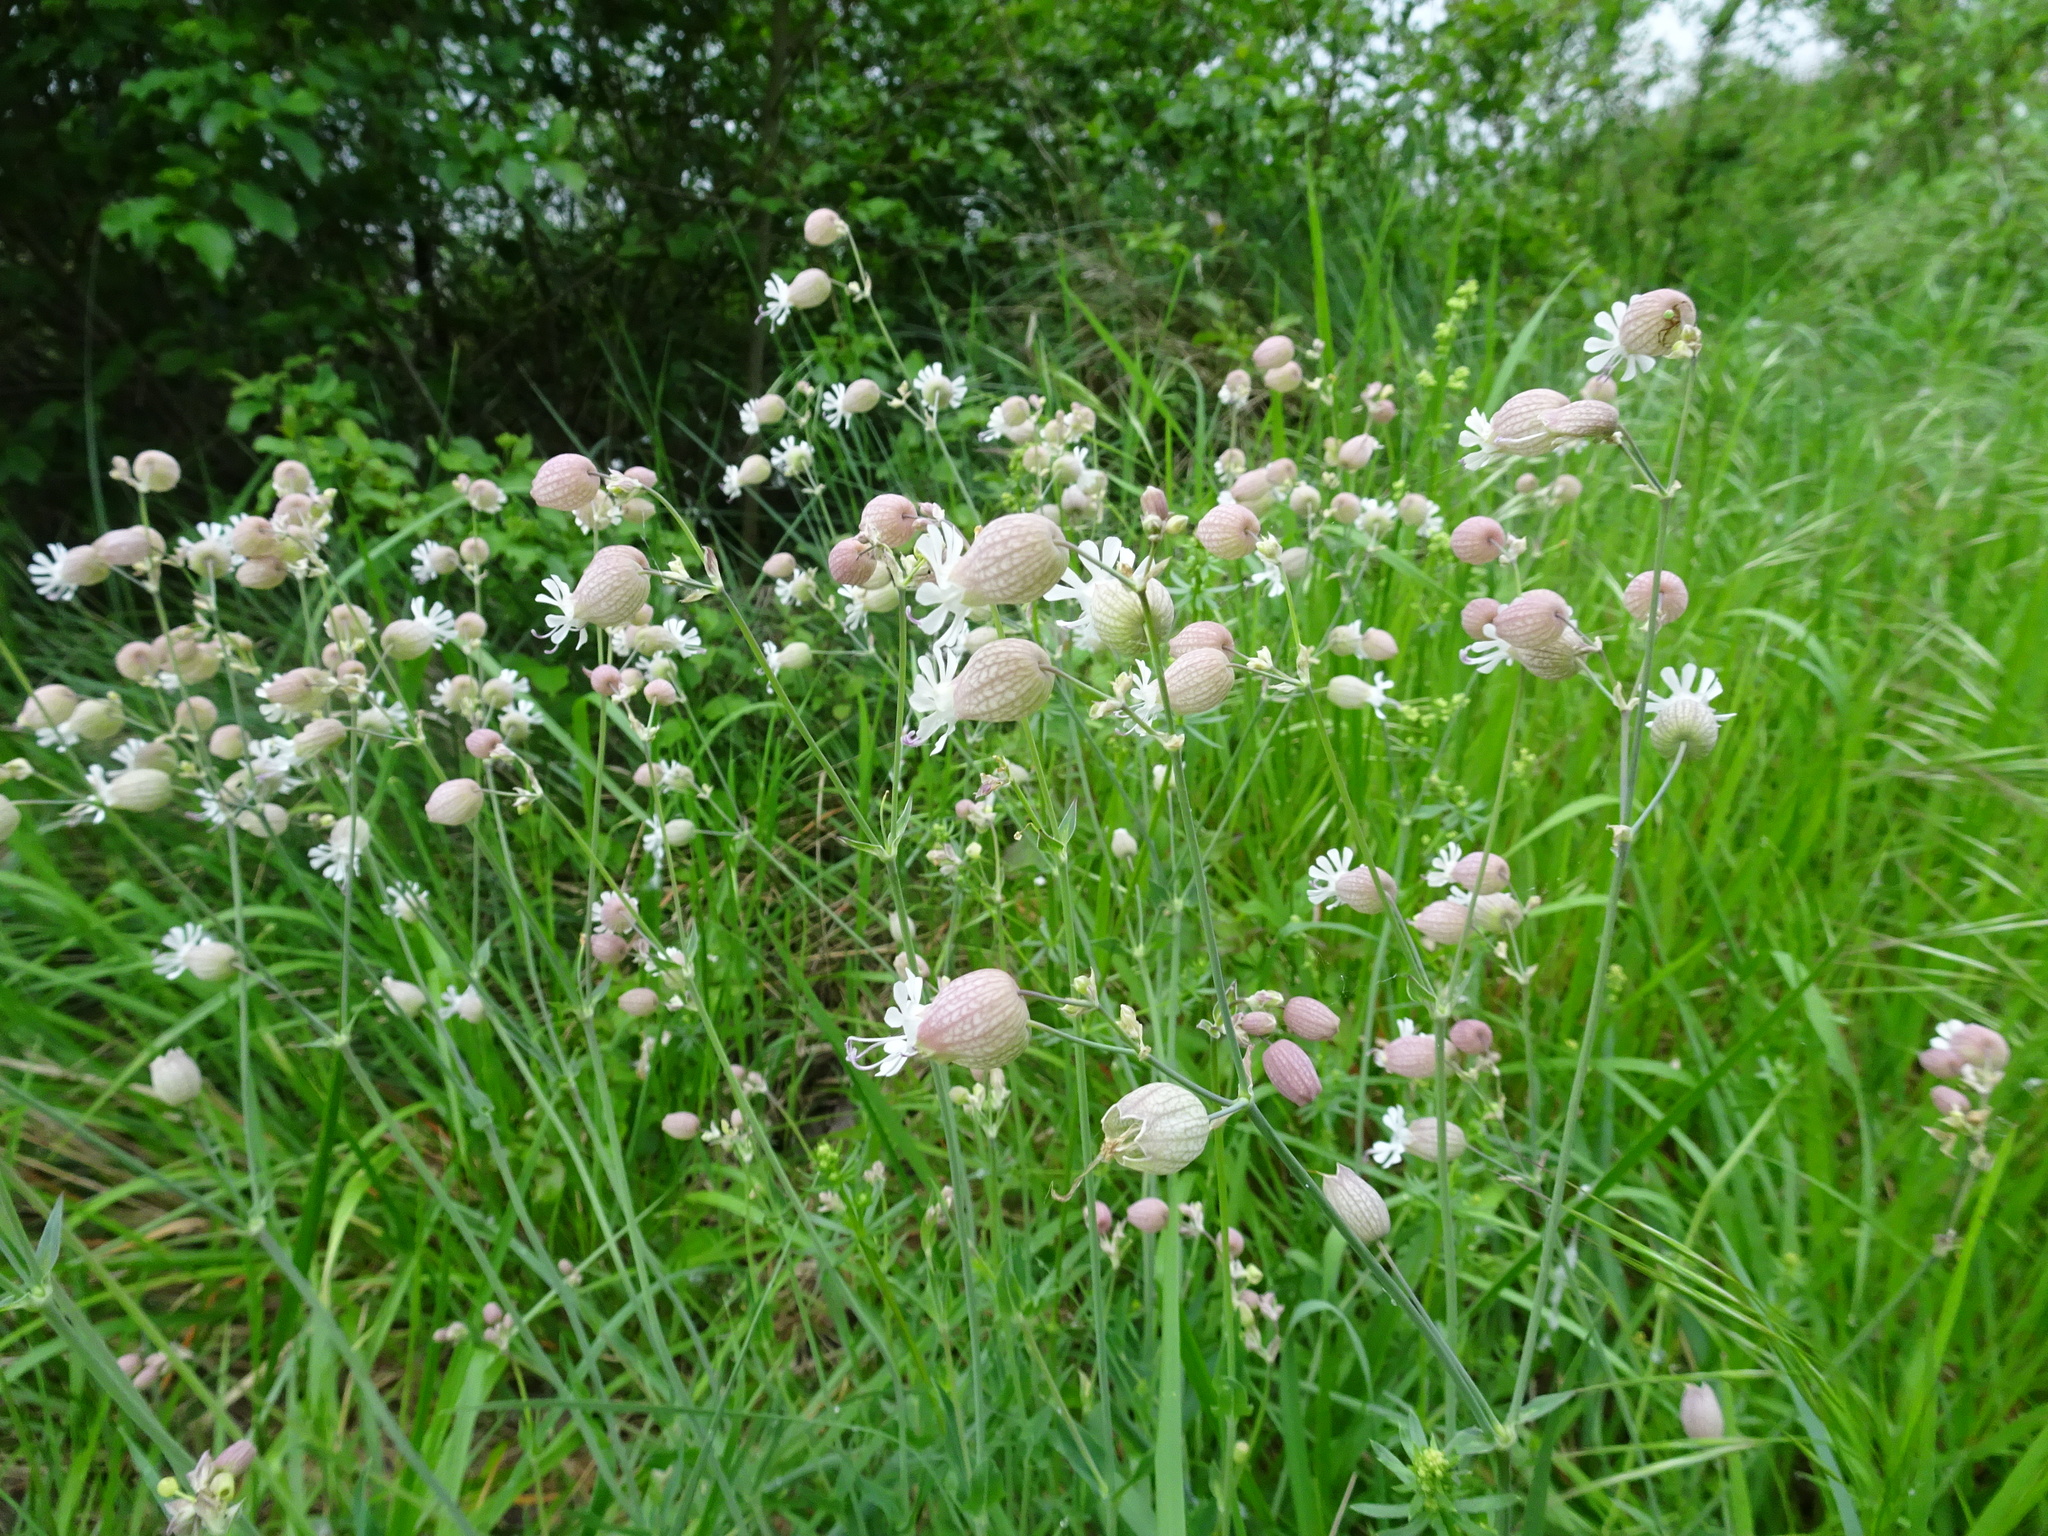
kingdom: Plantae
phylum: Tracheophyta
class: Magnoliopsida
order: Caryophyllales
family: Caryophyllaceae
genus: Silene
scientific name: Silene vulgaris
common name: Bladder campion
